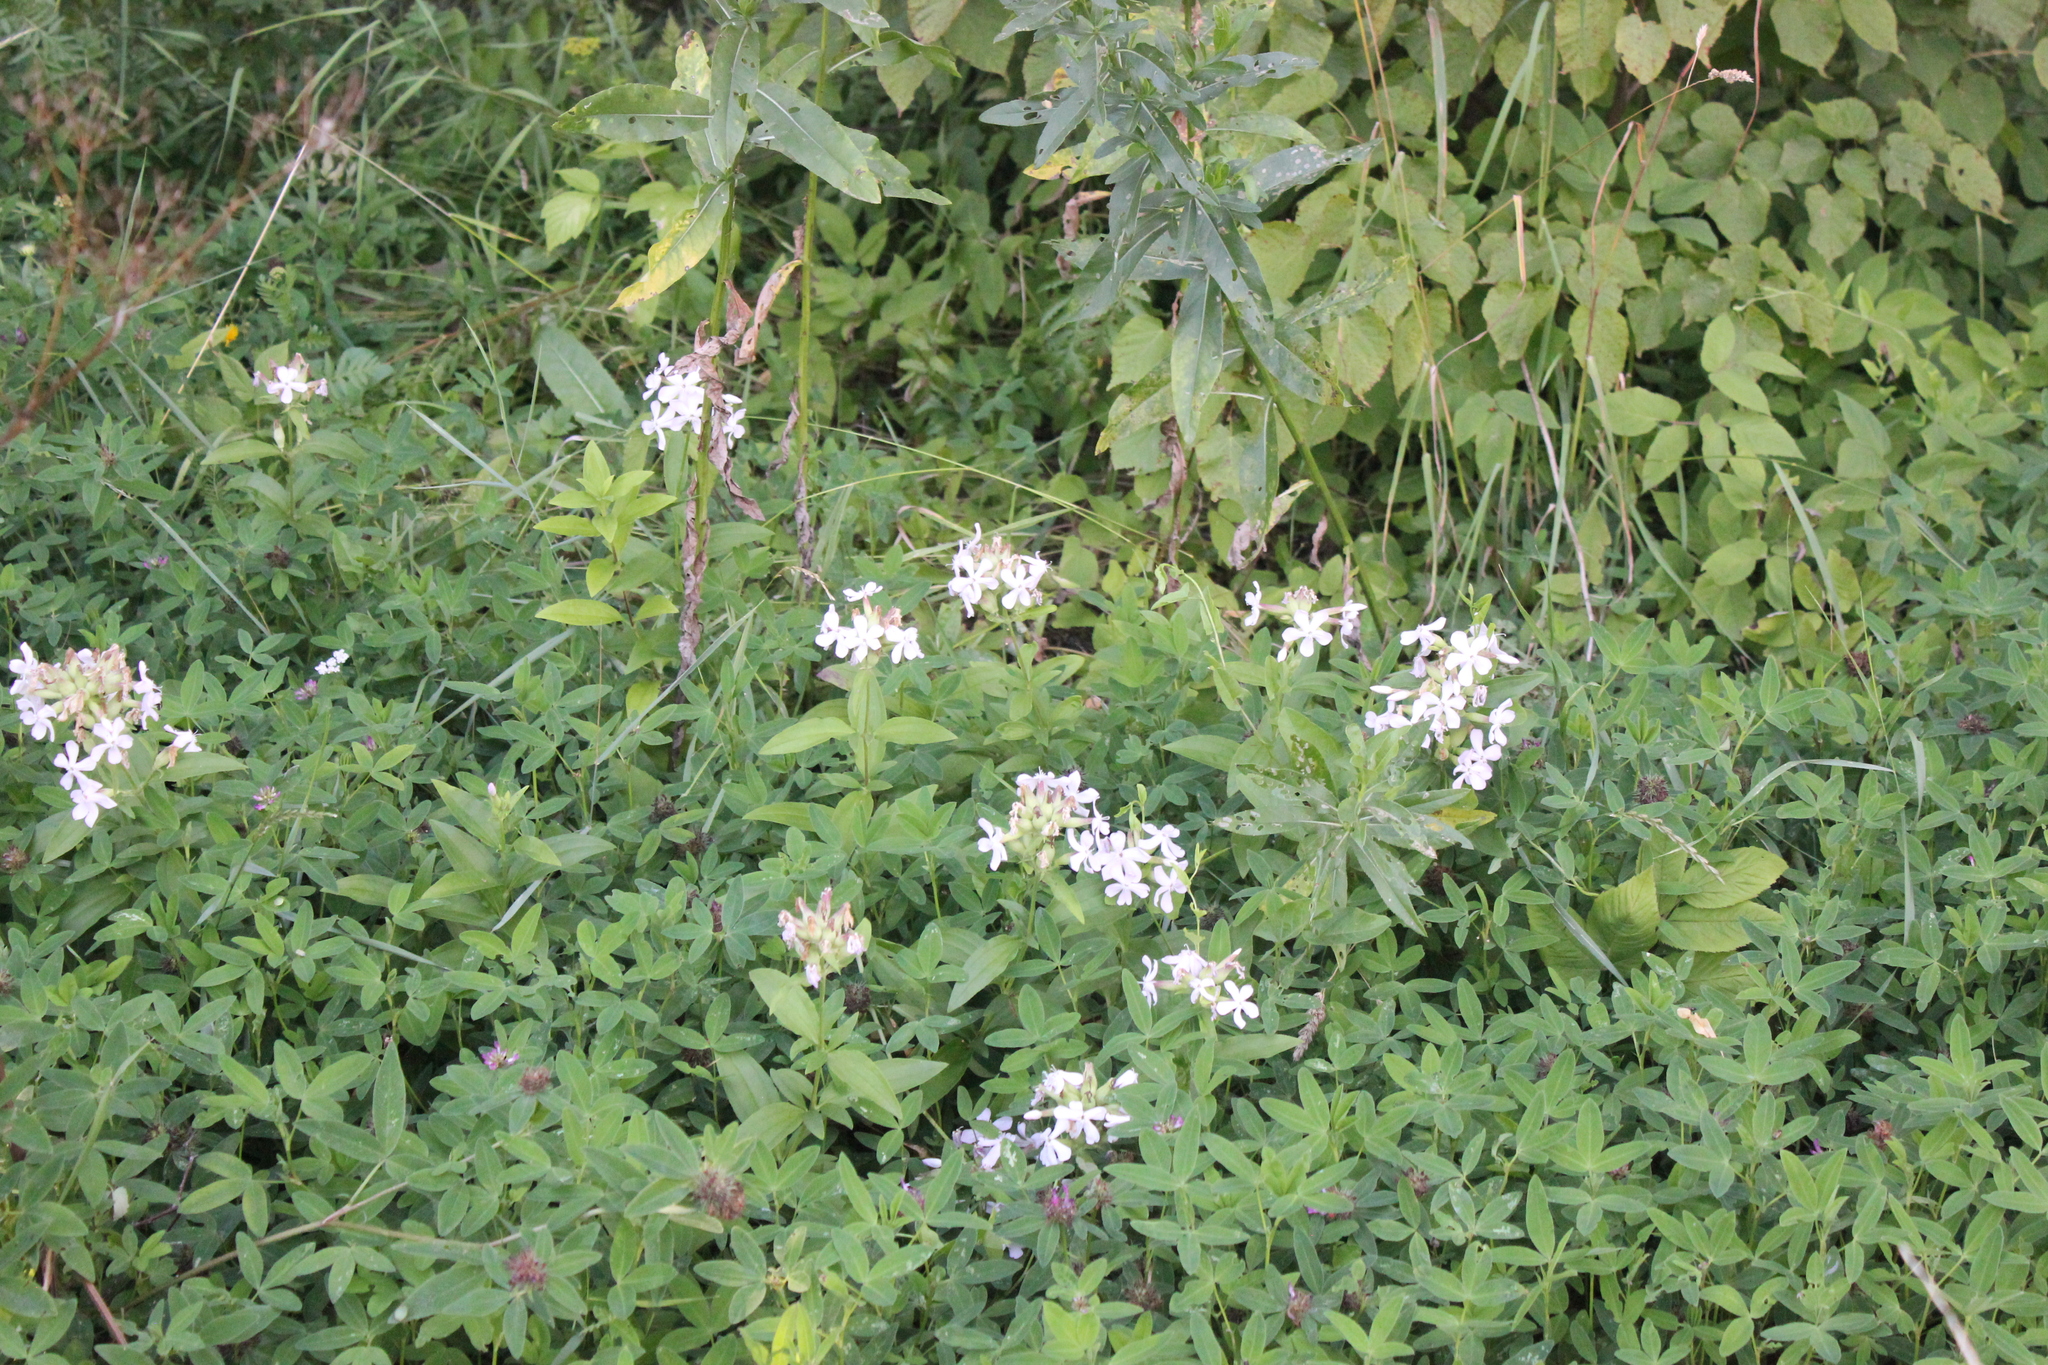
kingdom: Plantae
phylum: Tracheophyta
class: Magnoliopsida
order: Caryophyllales
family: Caryophyllaceae
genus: Saponaria
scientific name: Saponaria officinalis
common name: Soapwort
